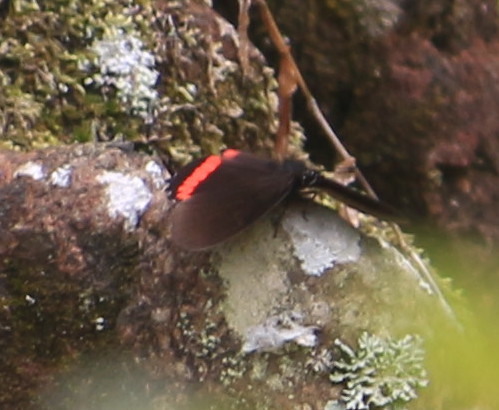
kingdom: Animalia
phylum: Arthropoda
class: Insecta
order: Lepidoptera
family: Nymphalidae
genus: Biblis
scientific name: Biblis aganisa
